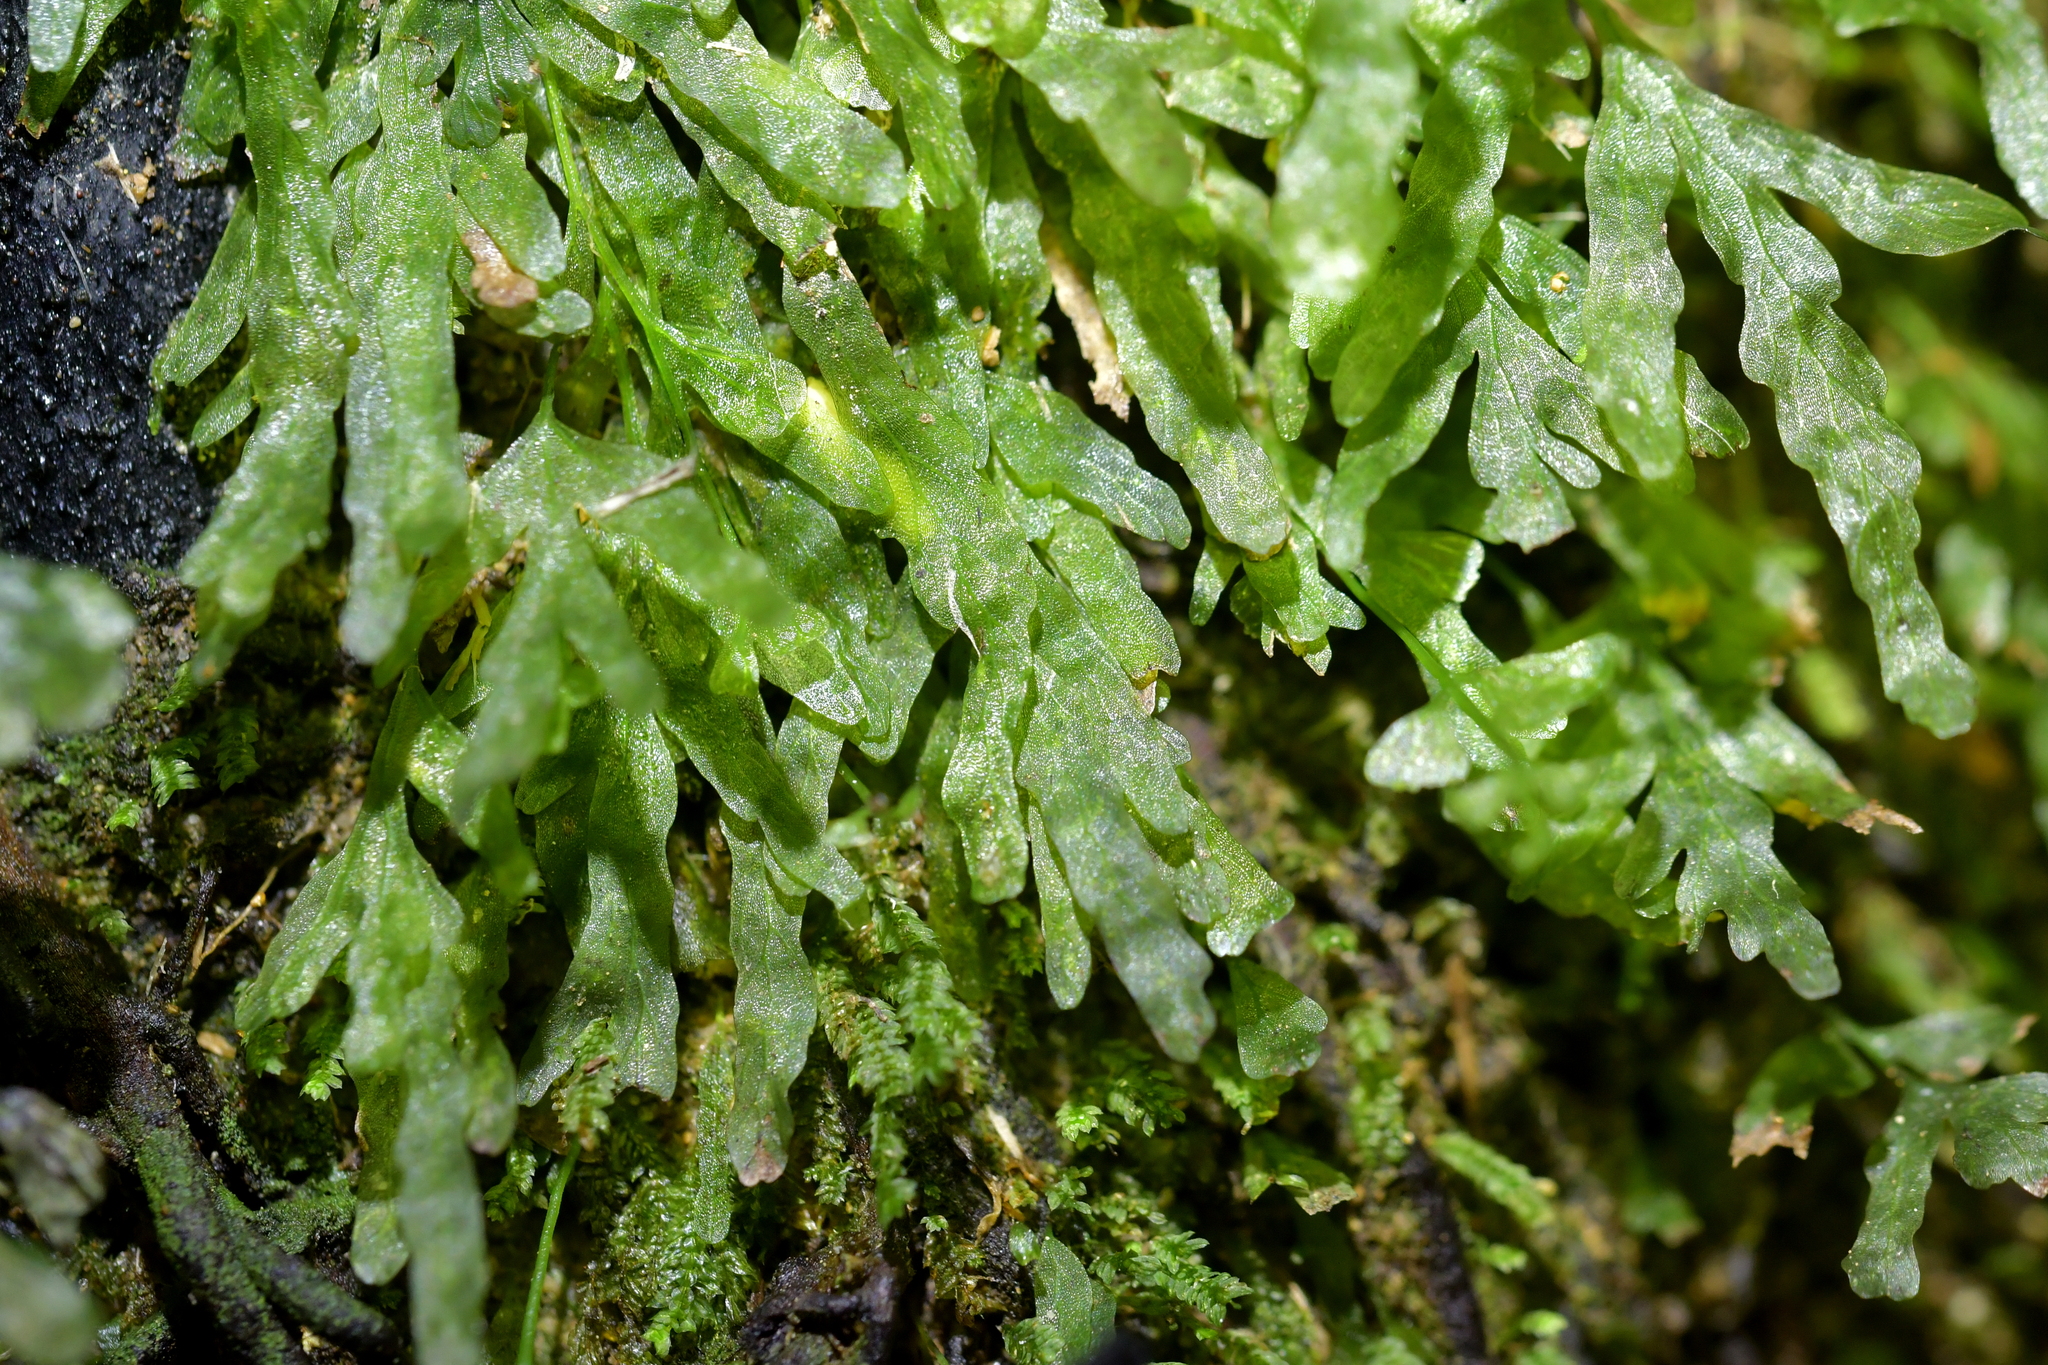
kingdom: Plantae
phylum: Tracheophyta
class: Polypodiopsida
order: Hymenophyllales
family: Hymenophyllaceae
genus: Polyphlebium
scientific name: Polyphlebium venosum
